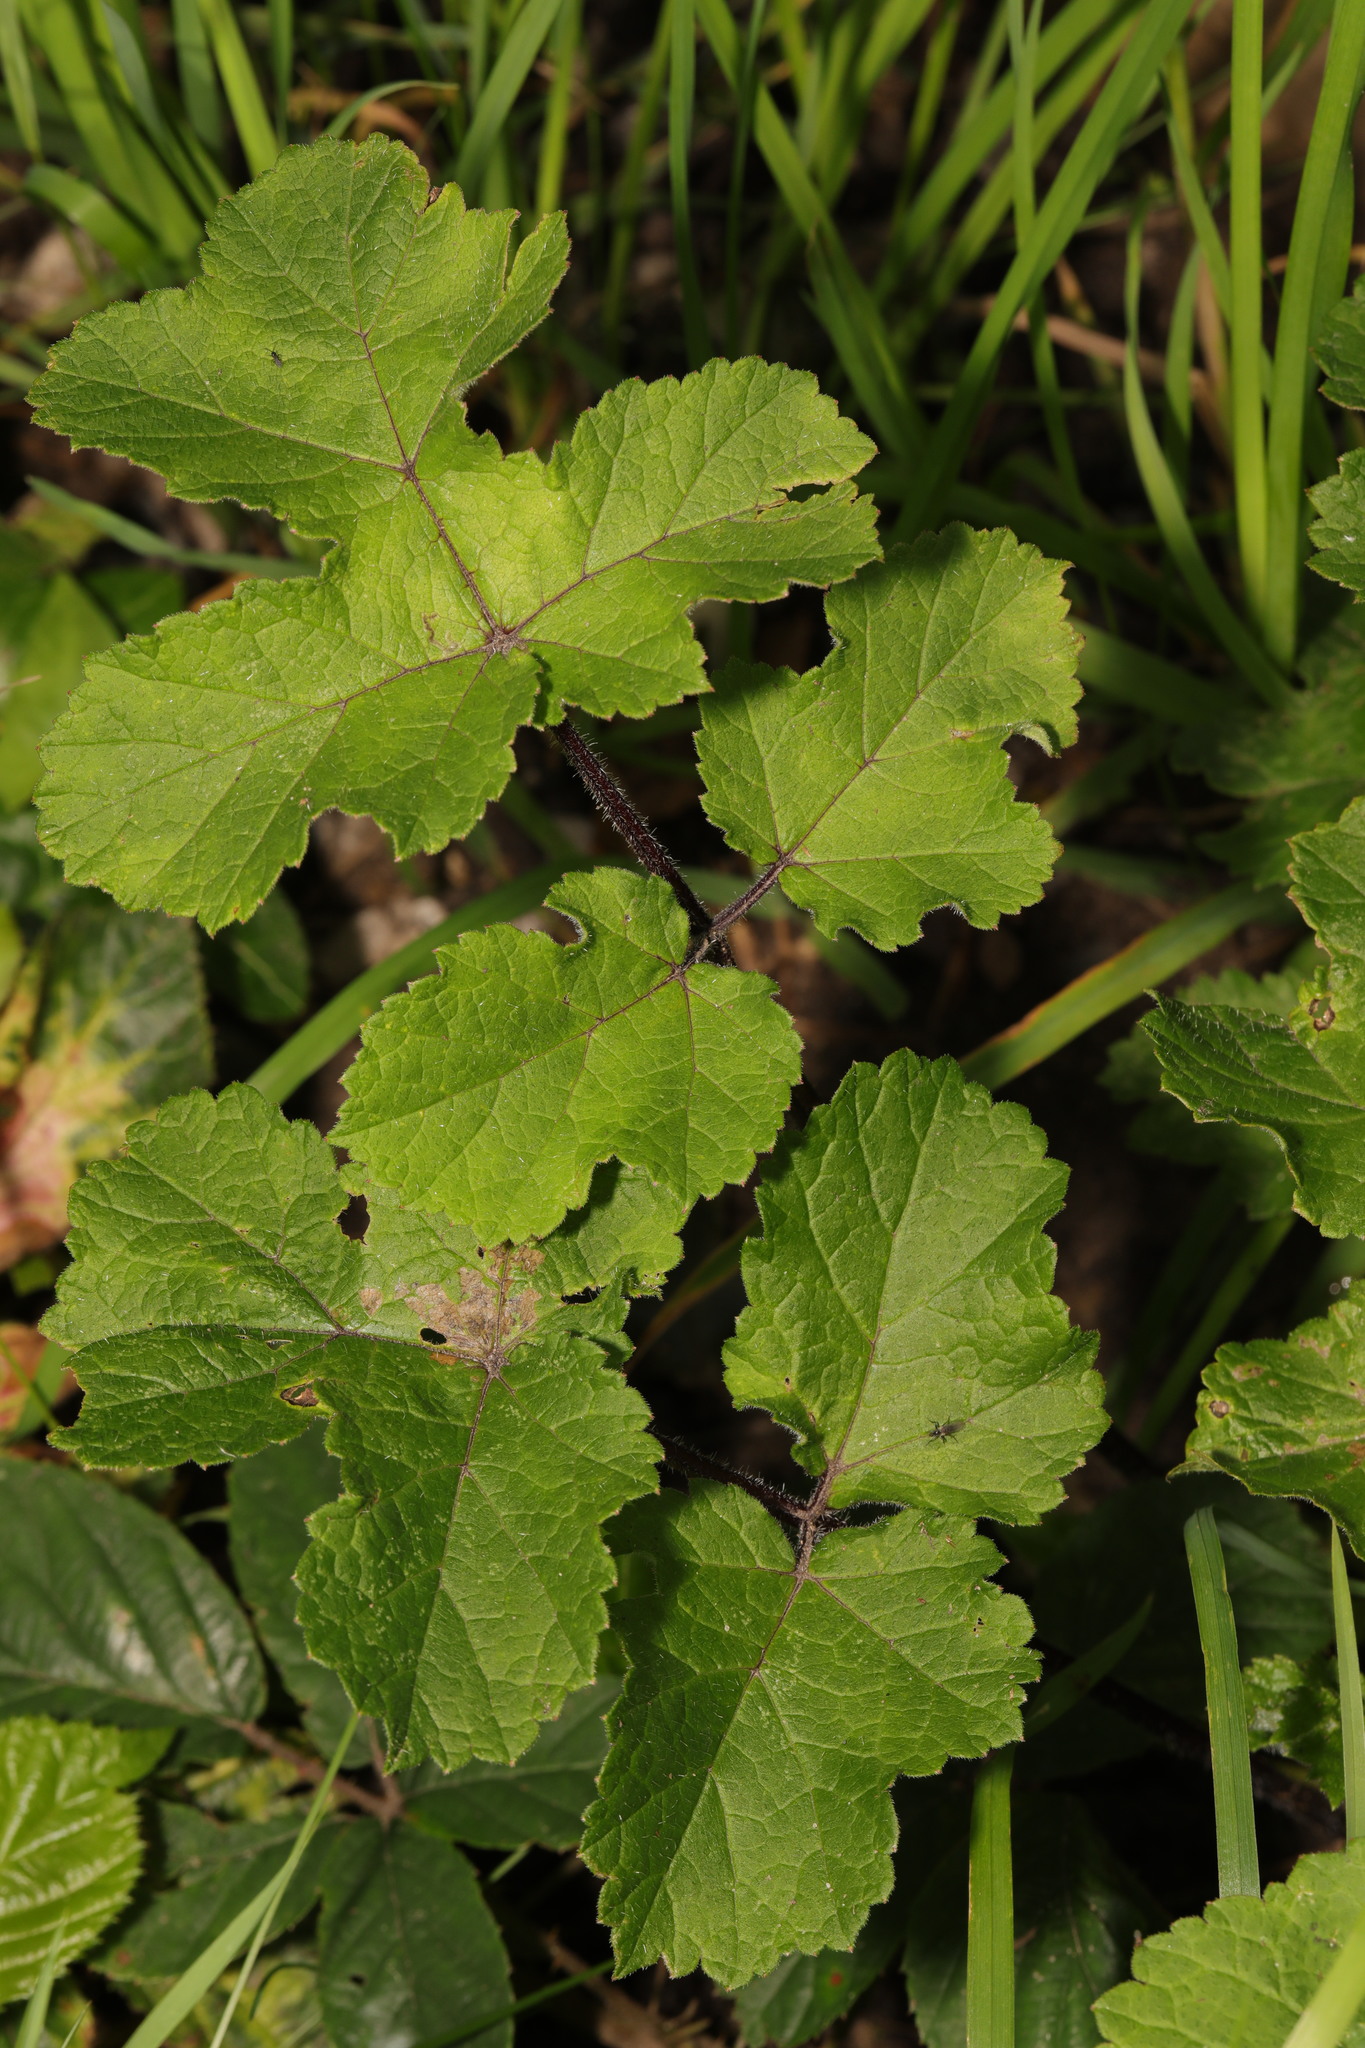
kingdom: Plantae
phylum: Tracheophyta
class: Magnoliopsida
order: Apiales
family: Apiaceae
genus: Heracleum
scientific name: Heracleum sphondylium
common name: Hogweed
